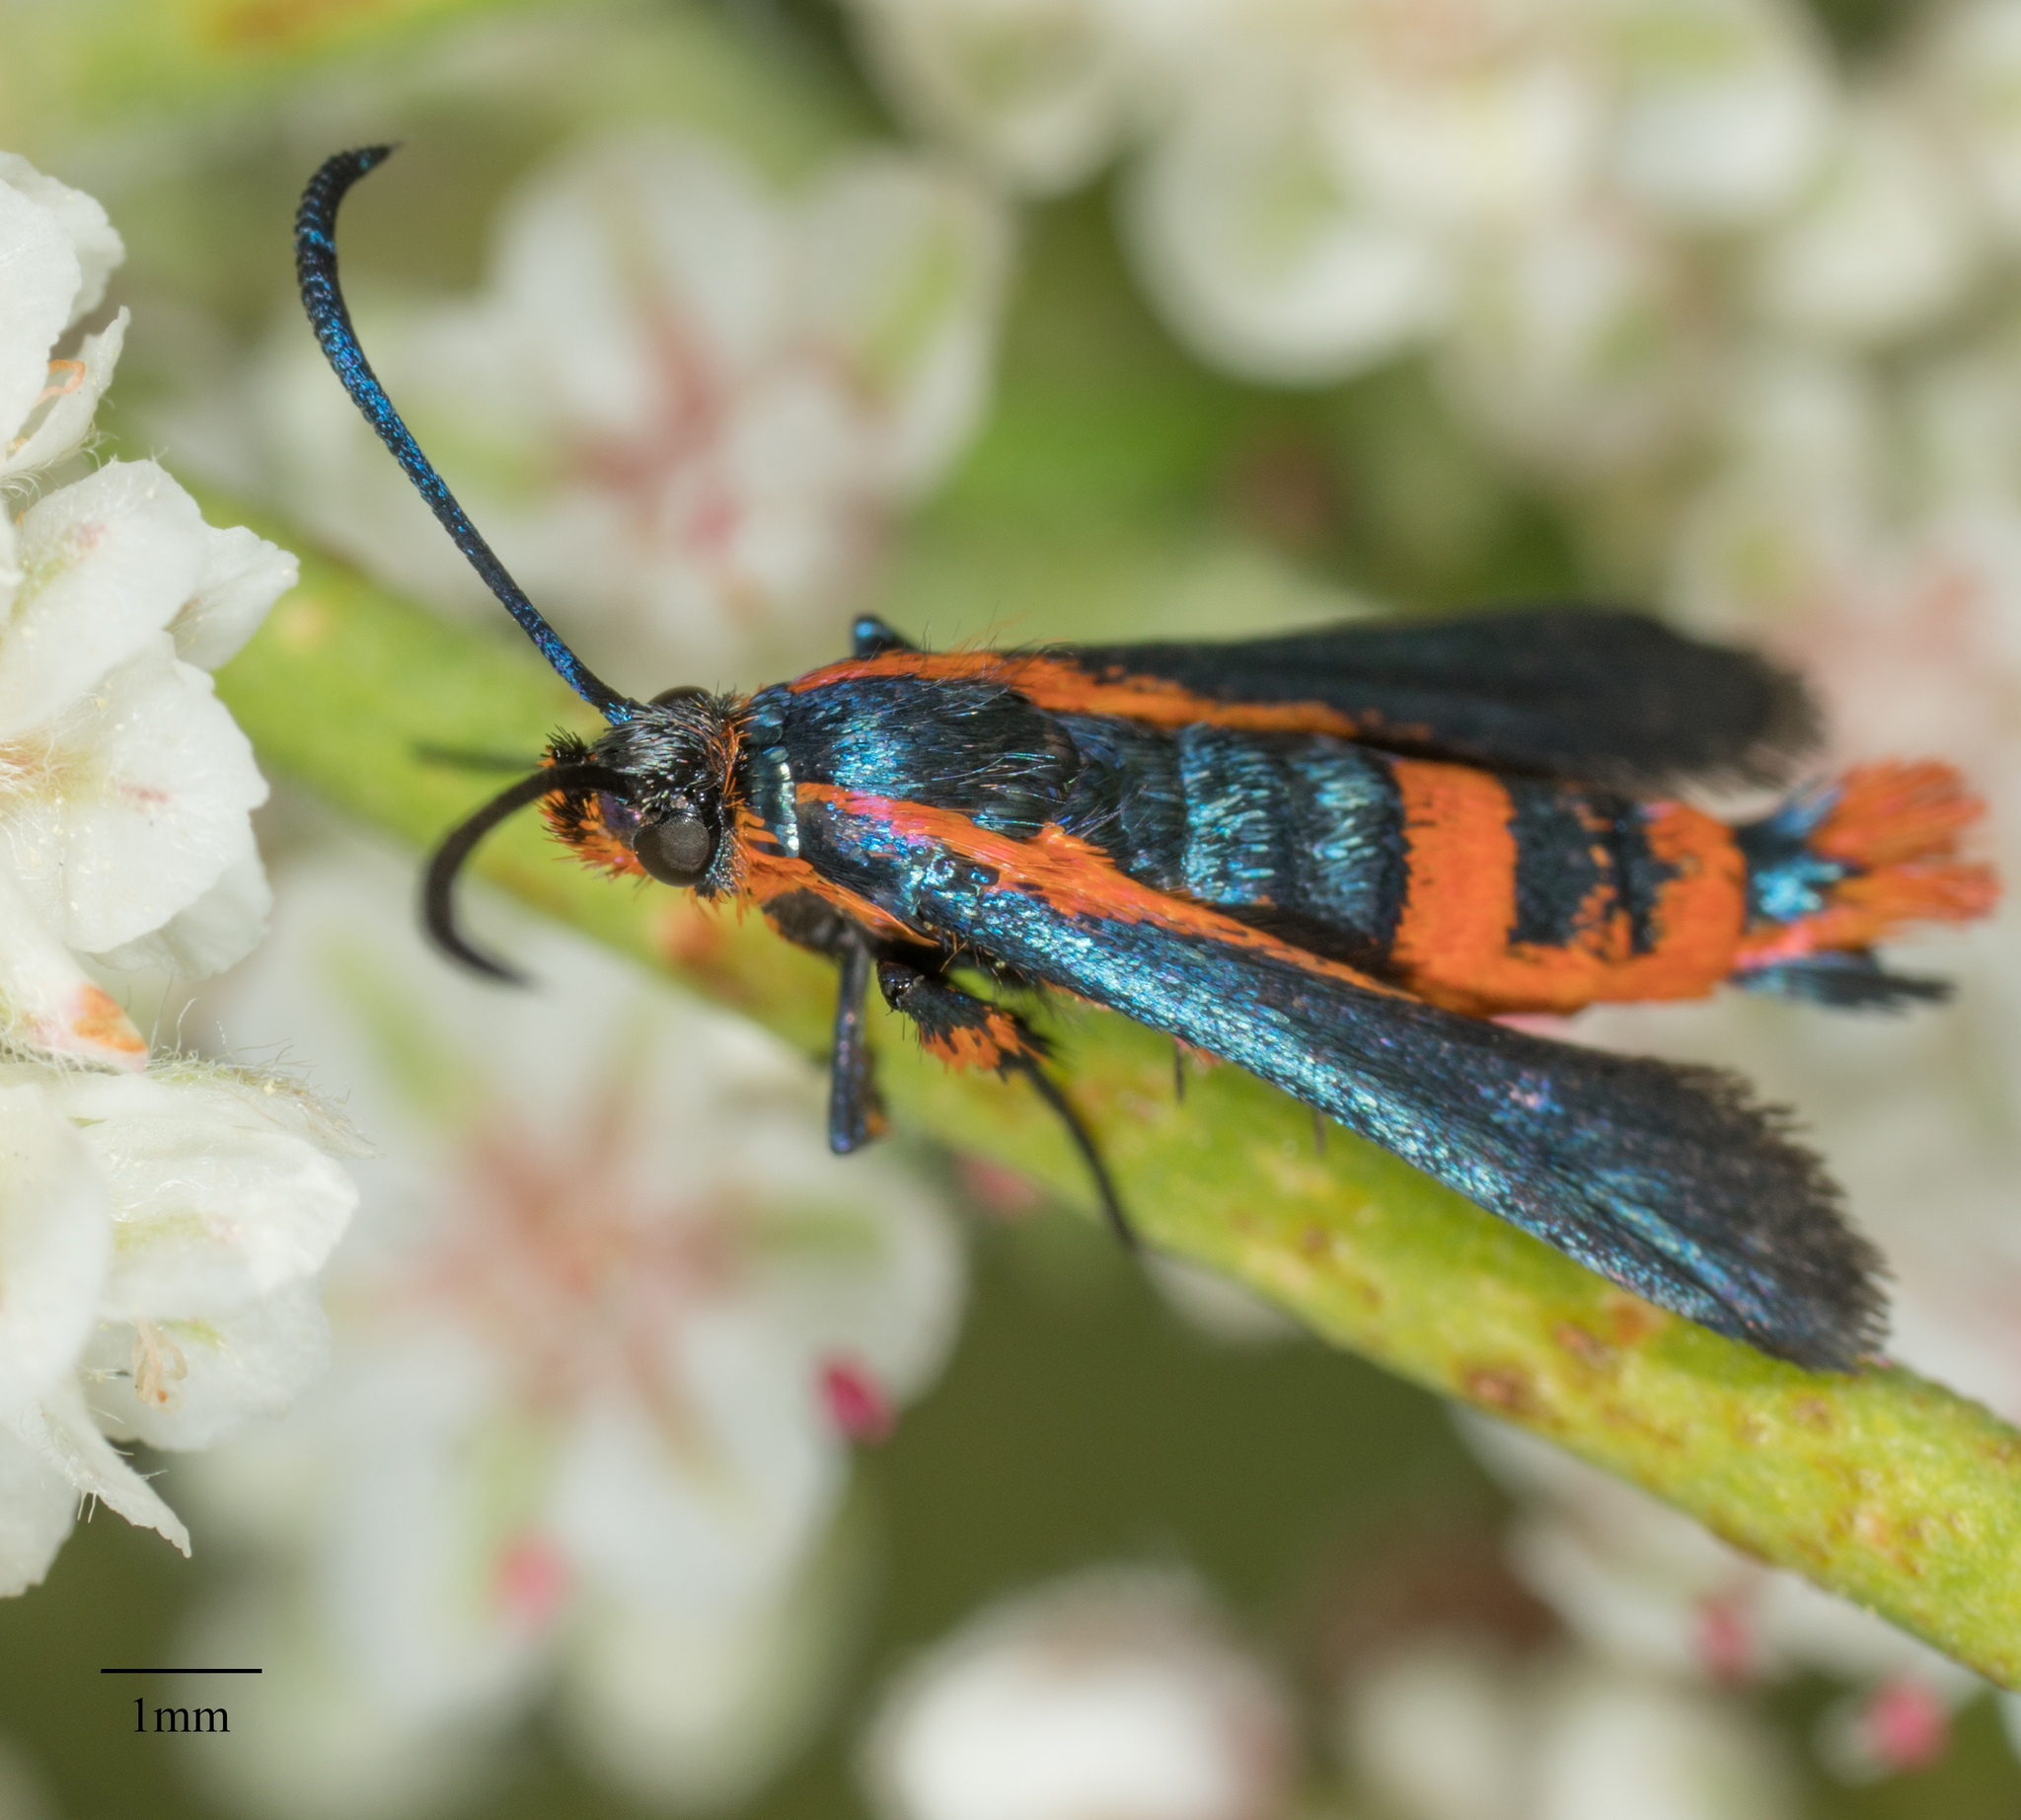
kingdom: Animalia
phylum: Arthropoda
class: Insecta
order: Lepidoptera
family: Sesiidae
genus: Synanthedon
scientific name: Synanthedon polygoni
